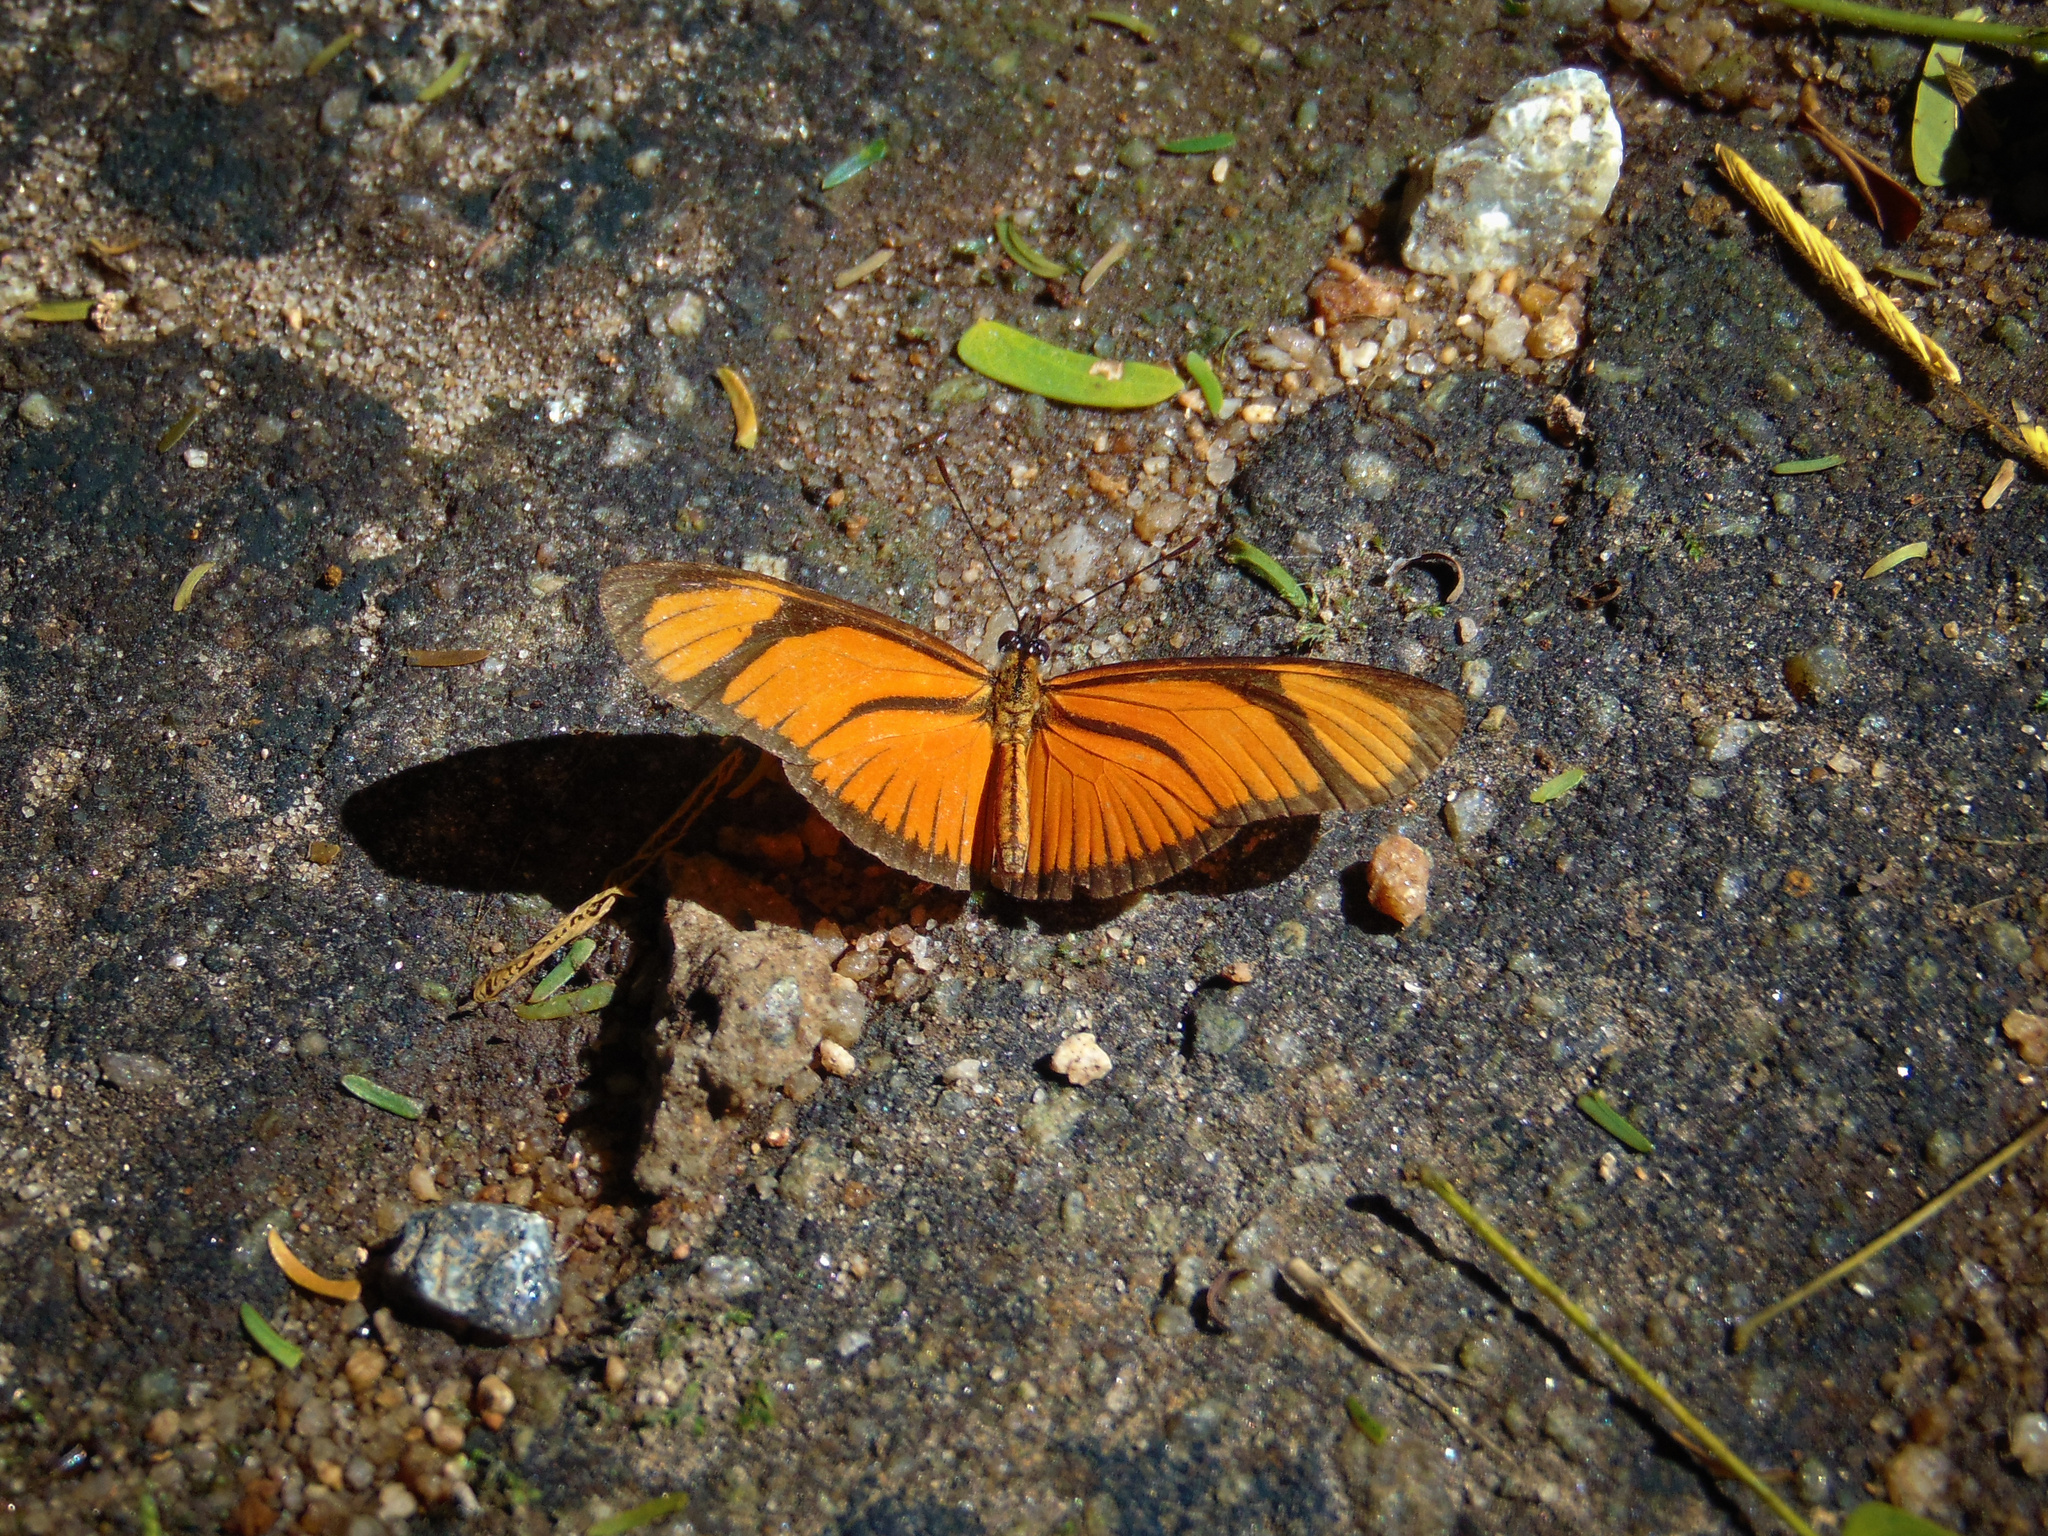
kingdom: Animalia
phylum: Arthropoda
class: Insecta
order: Lepidoptera
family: Nymphalidae
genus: Heliconius
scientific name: Heliconius aliphera
